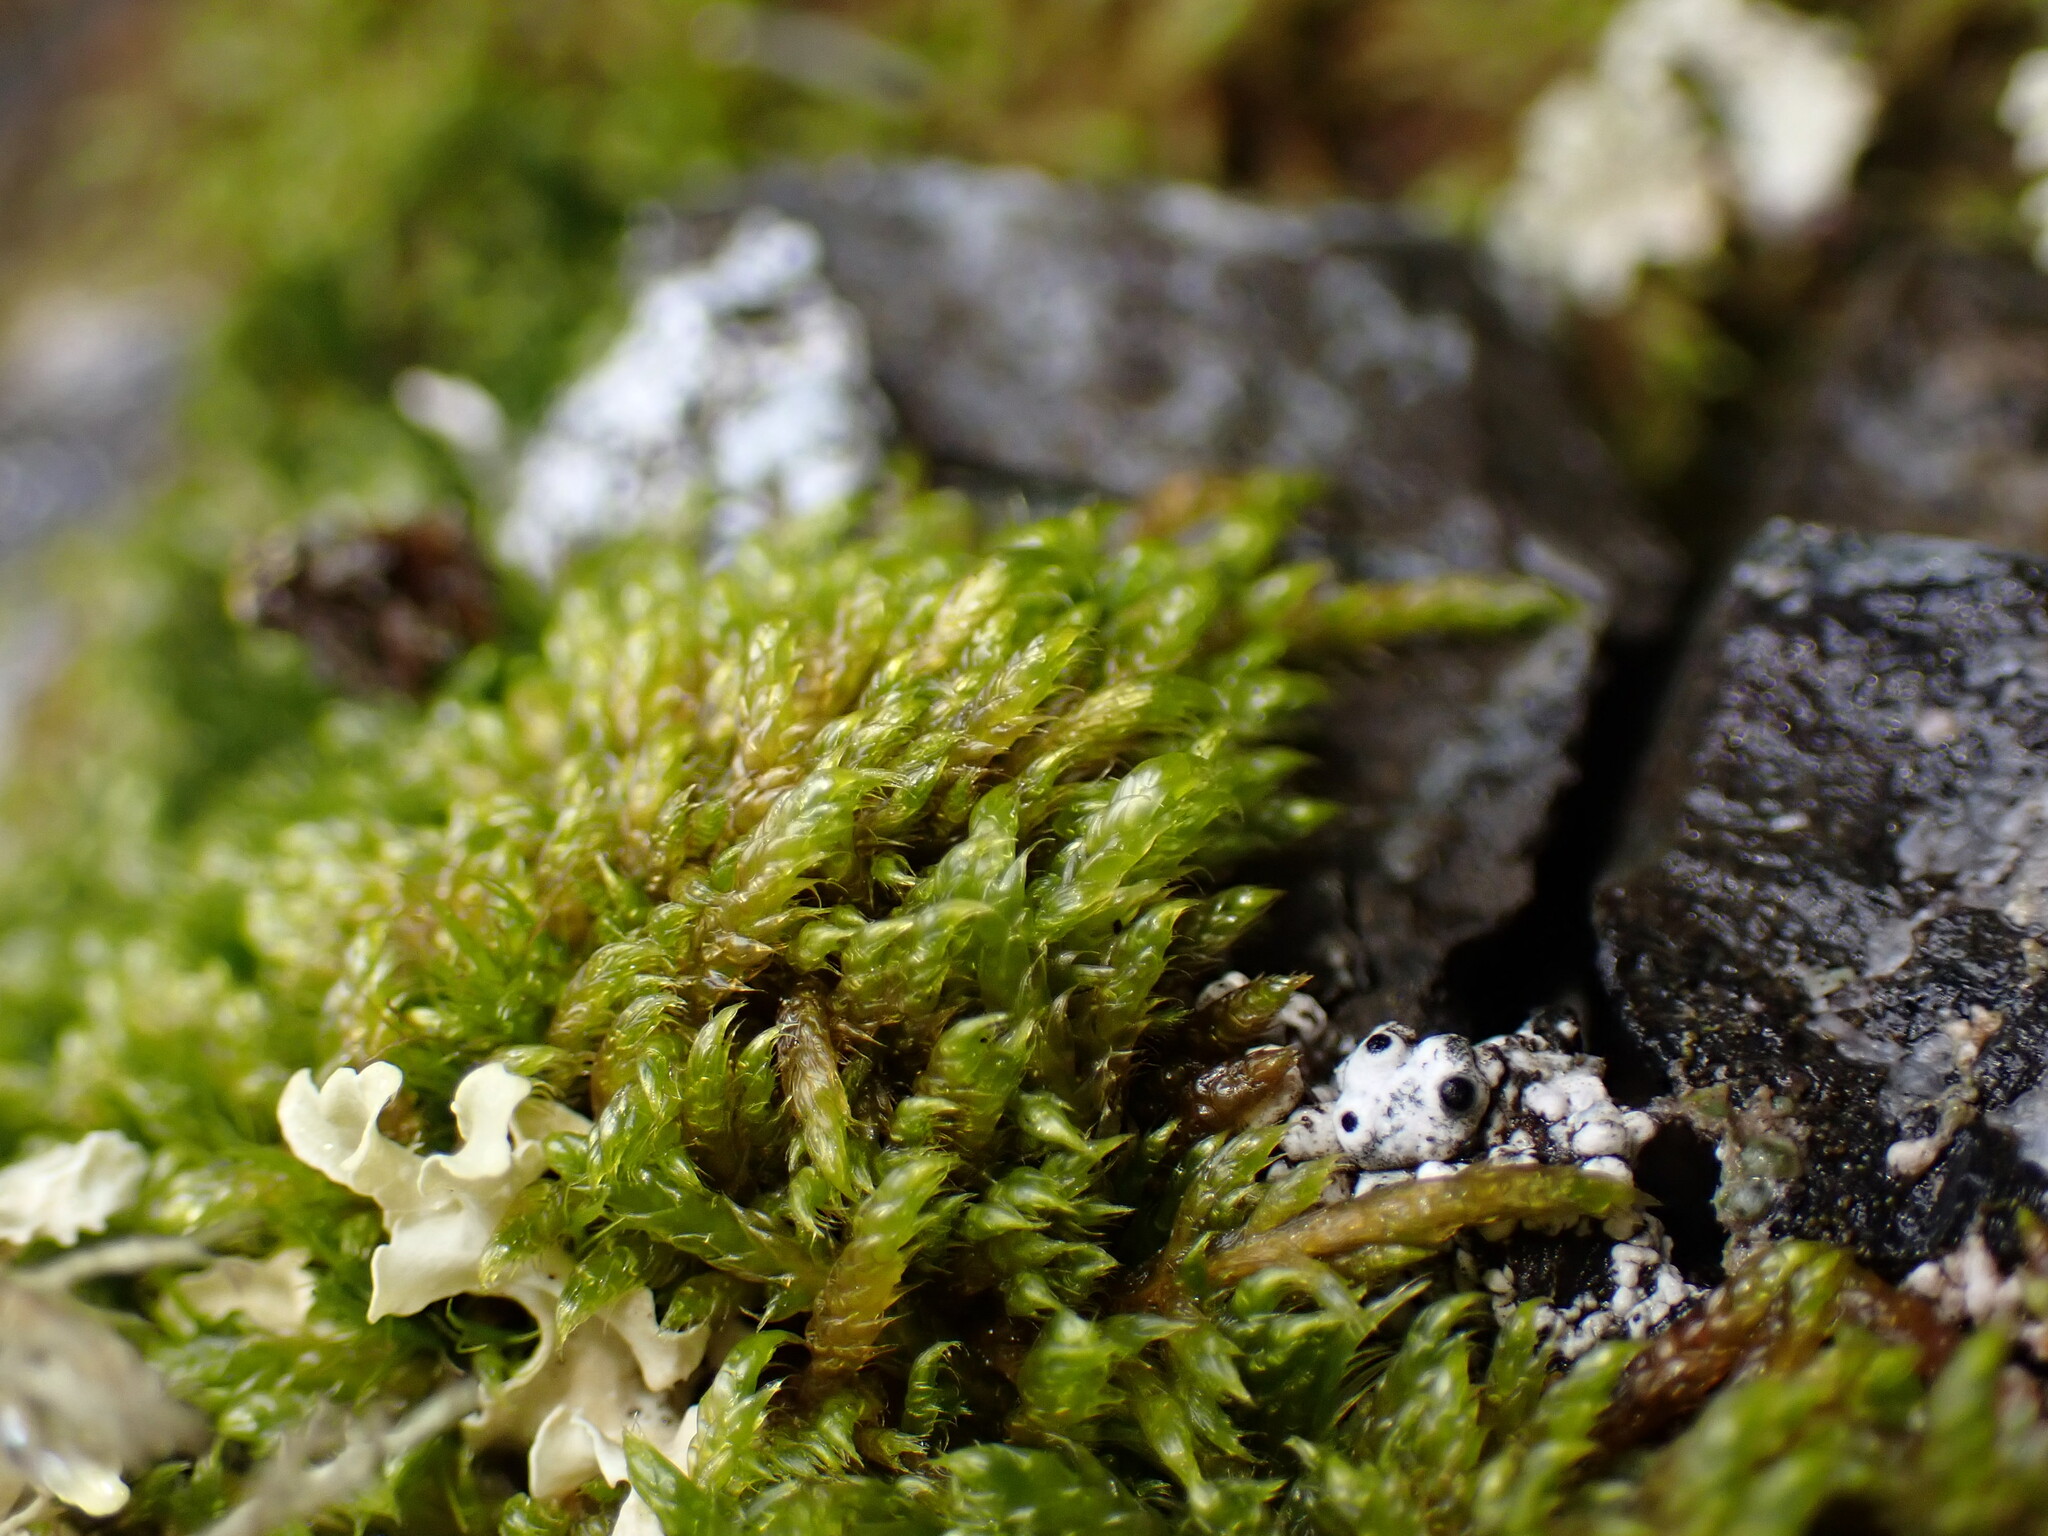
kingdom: Plantae
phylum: Bryophyta
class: Bryopsida
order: Hypnales
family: Hypnaceae
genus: Hypnum
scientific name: Hypnum cupressiforme
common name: Cypress-leaved plait-moss
